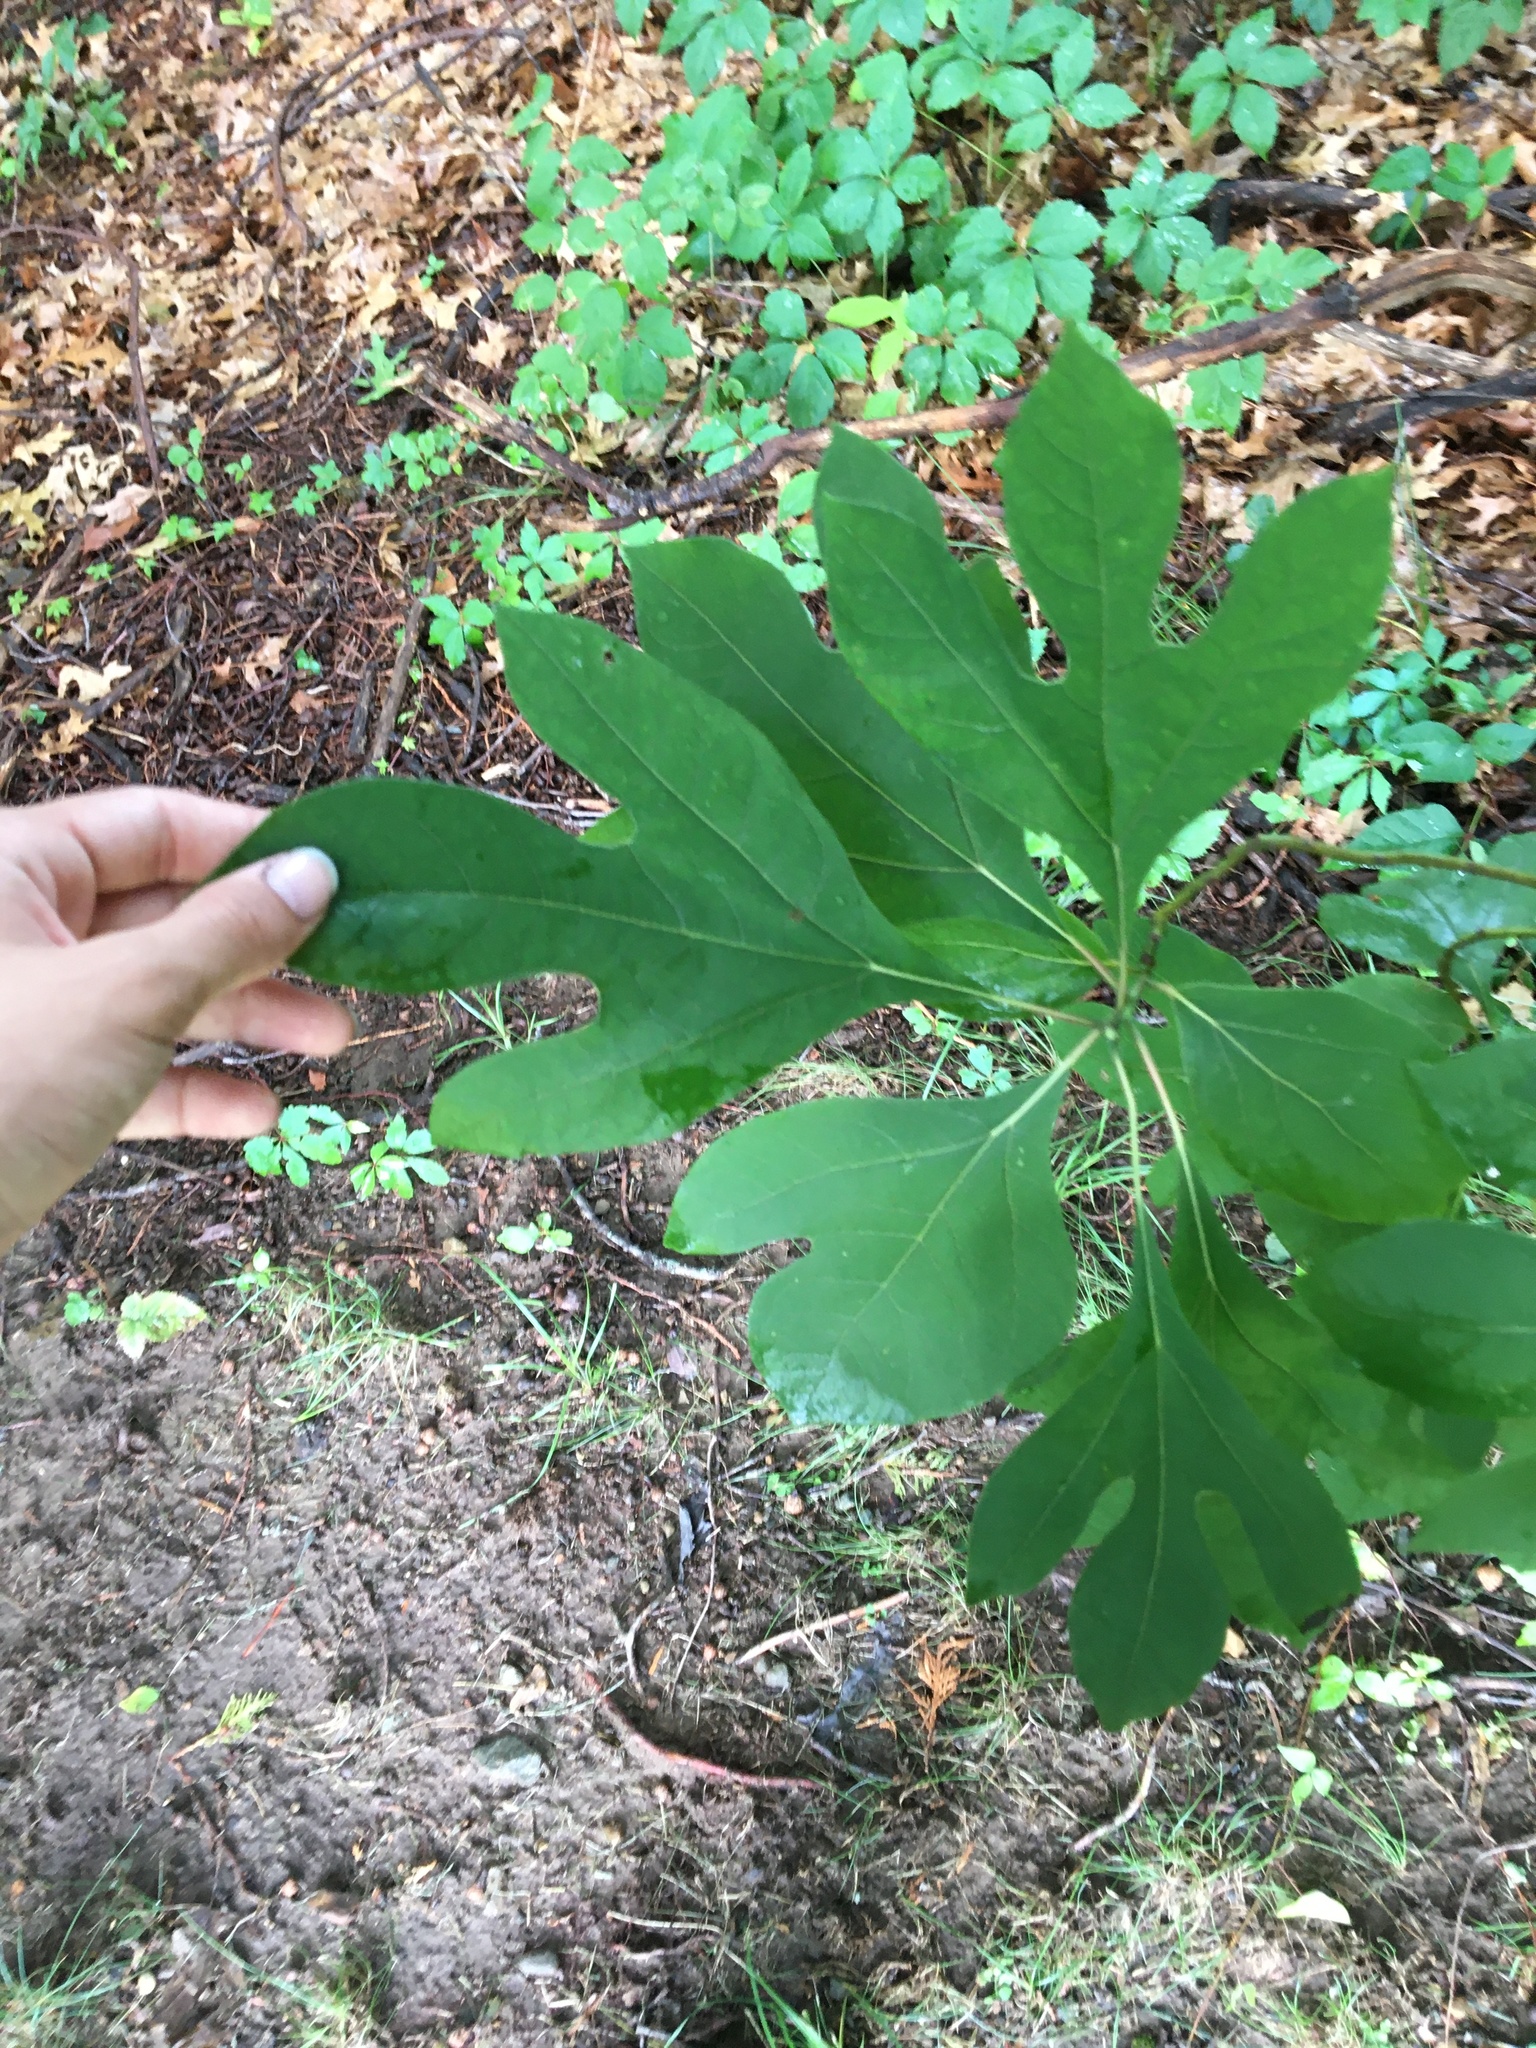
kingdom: Plantae
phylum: Tracheophyta
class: Magnoliopsida
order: Laurales
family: Lauraceae
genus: Sassafras
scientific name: Sassafras albidum
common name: Sassafras
